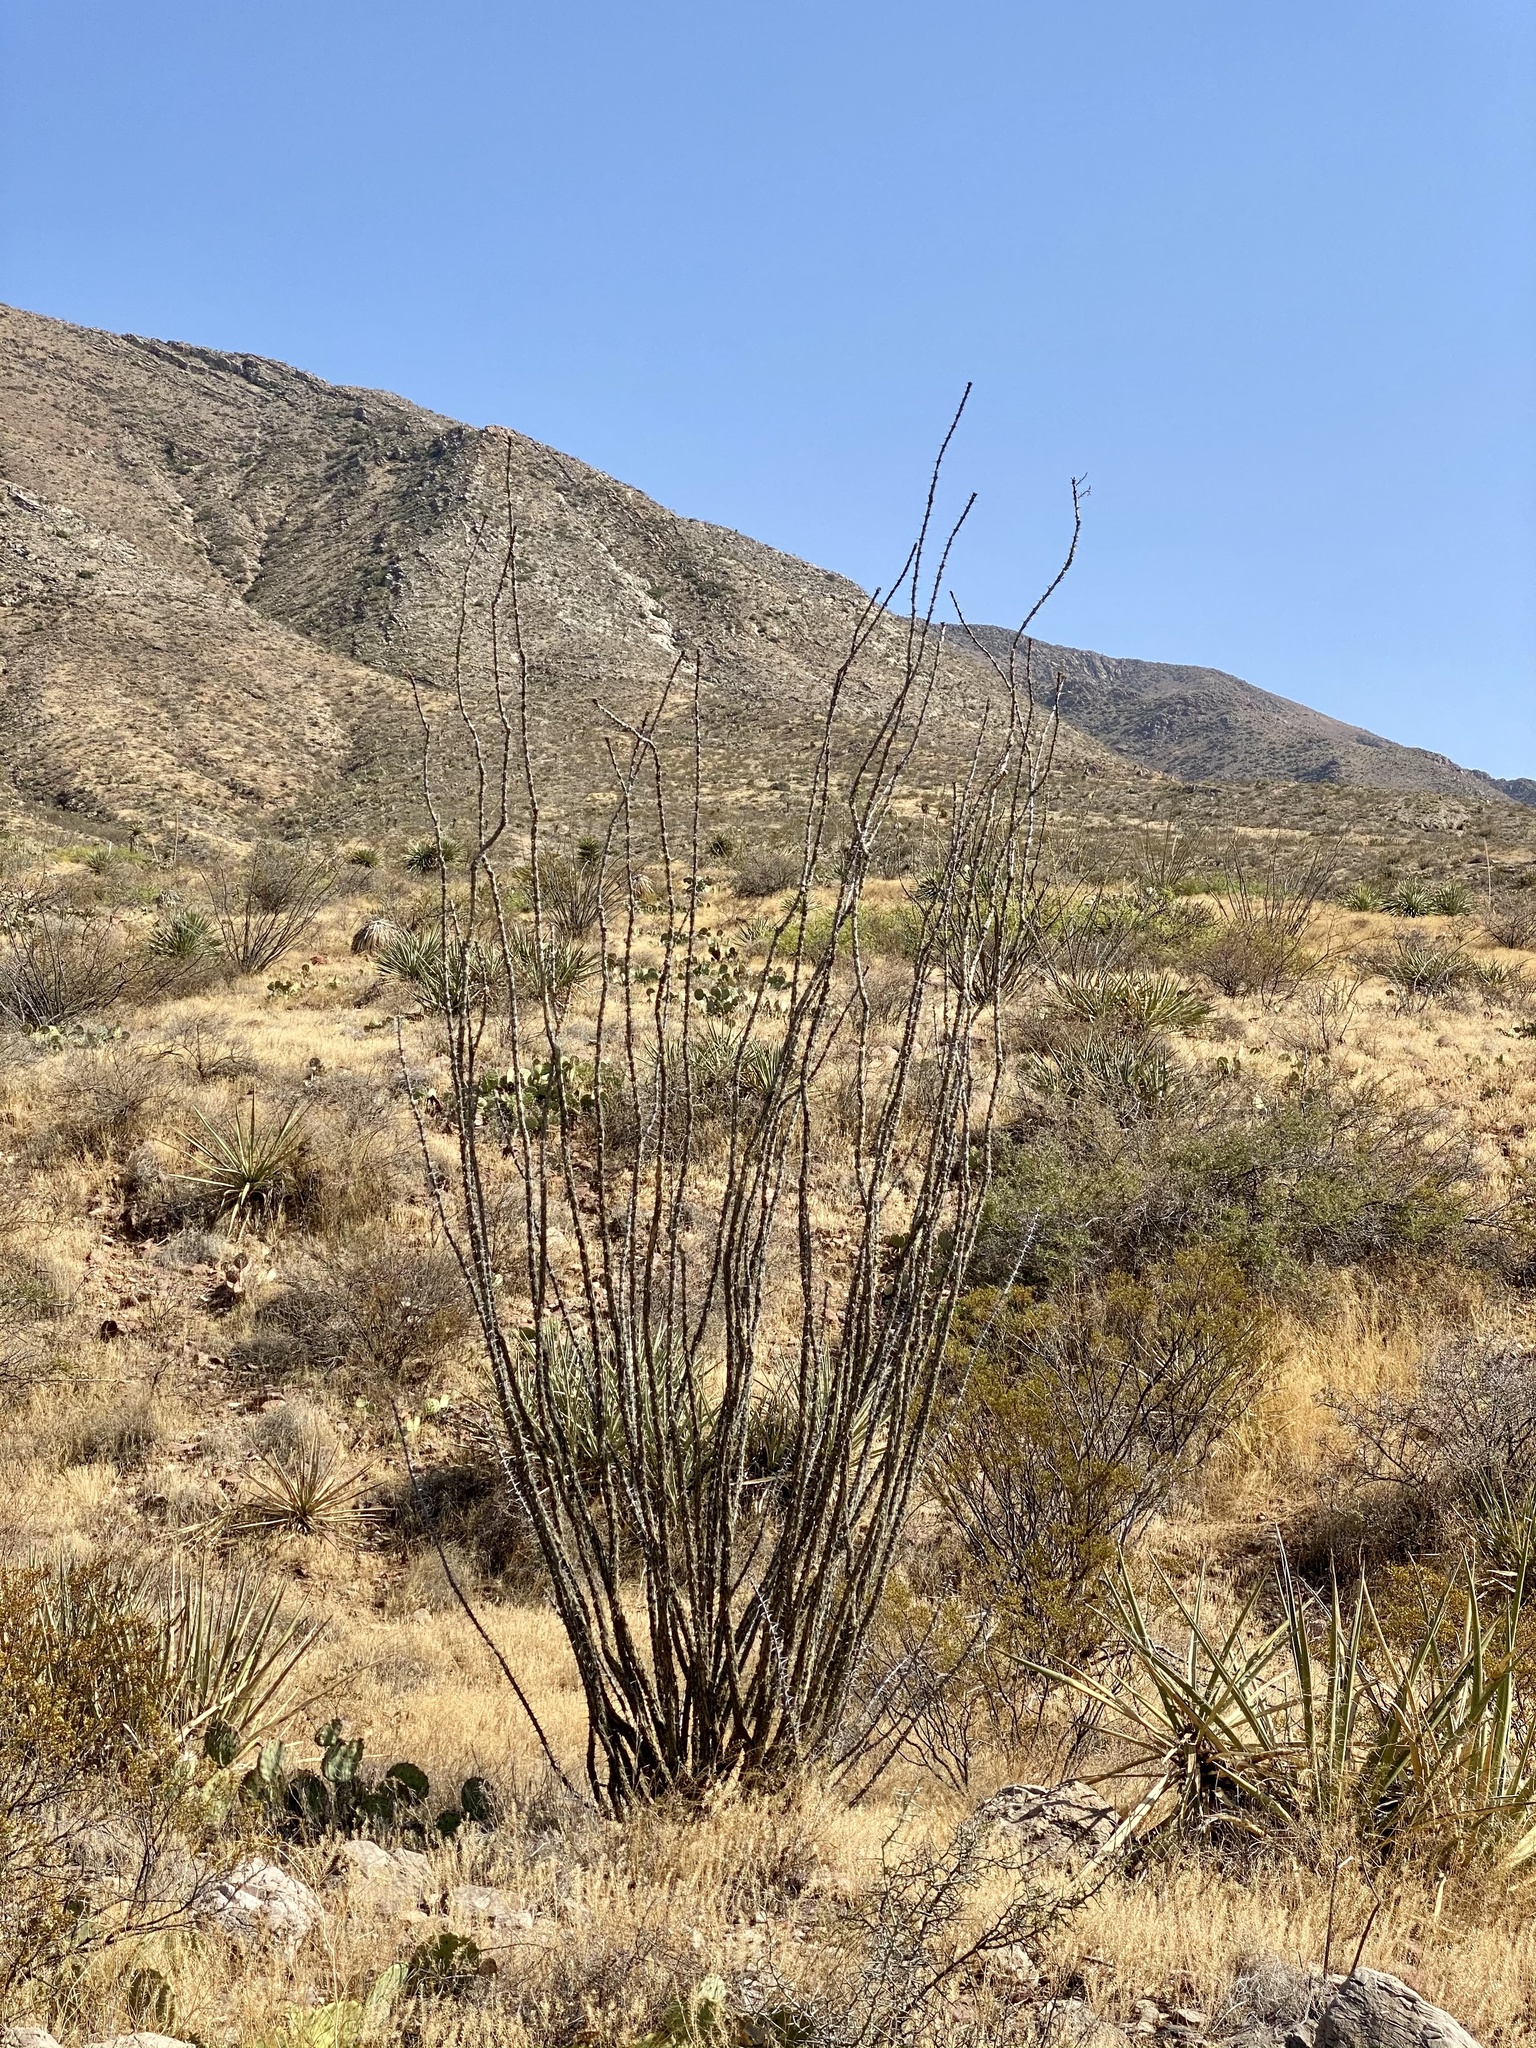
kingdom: Plantae
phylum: Tracheophyta
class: Magnoliopsida
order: Ericales
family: Fouquieriaceae
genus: Fouquieria
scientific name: Fouquieria splendens
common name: Vine-cactus
